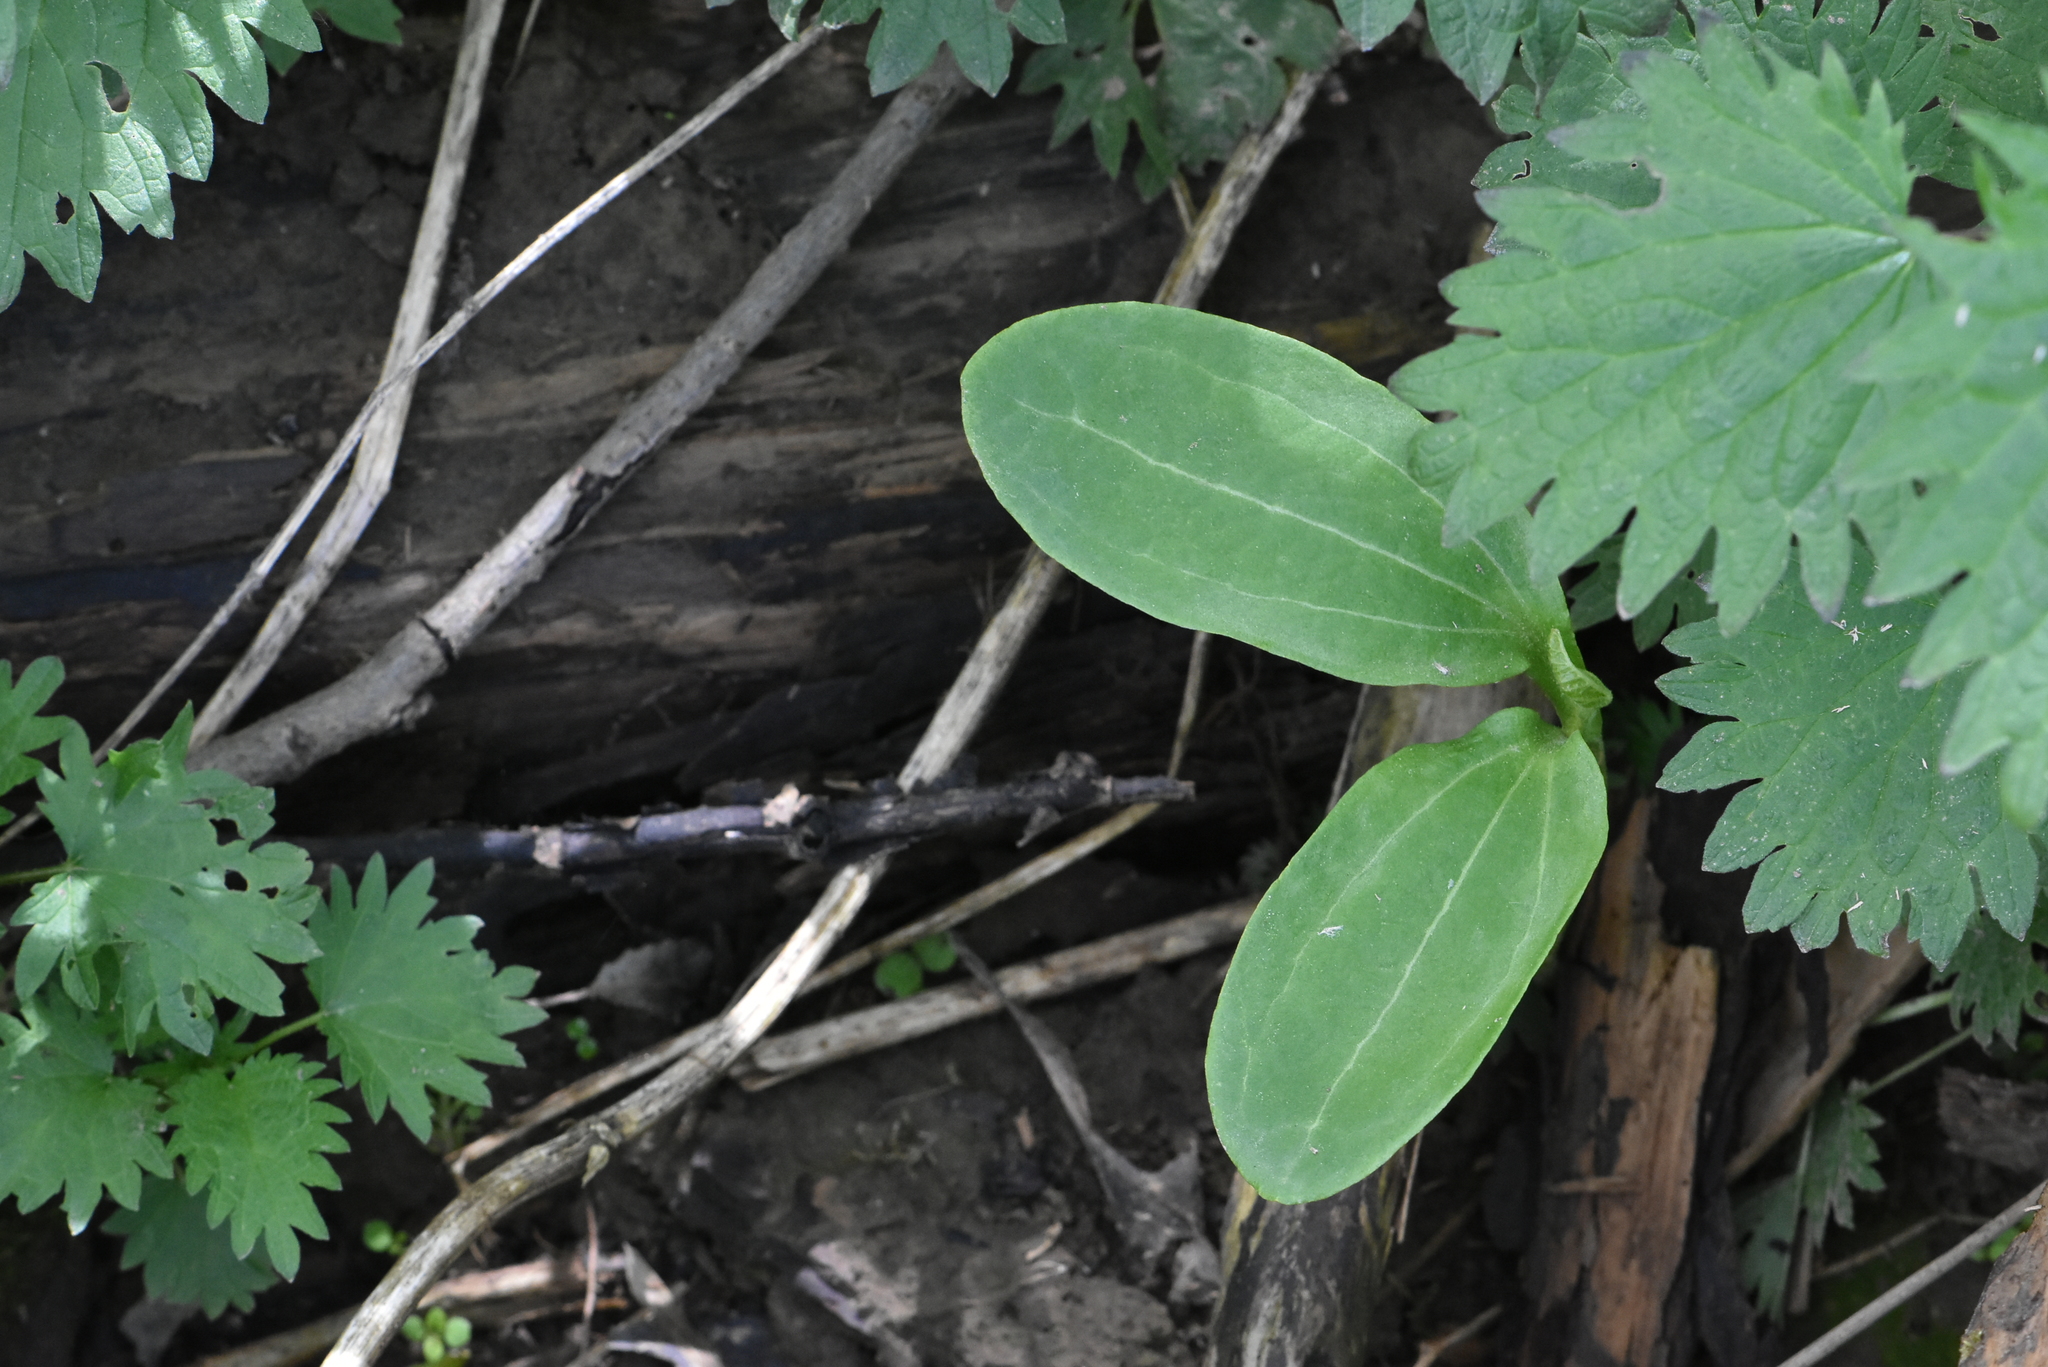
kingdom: Plantae
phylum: Tracheophyta
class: Magnoliopsida
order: Cucurbitales
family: Cucurbitaceae
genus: Echinocystis
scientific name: Echinocystis lobata
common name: Wild cucumber
